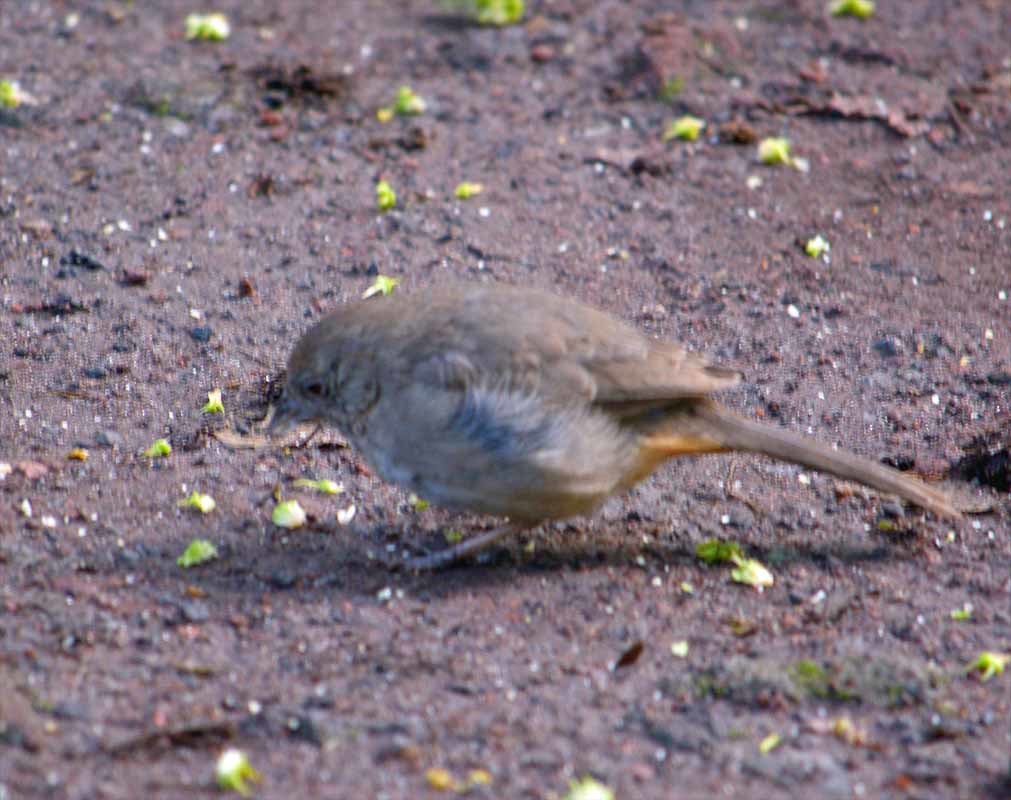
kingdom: Animalia
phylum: Chordata
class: Aves
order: Passeriformes
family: Passerellidae
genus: Melozone
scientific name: Melozone fusca
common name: Canyon towhee
